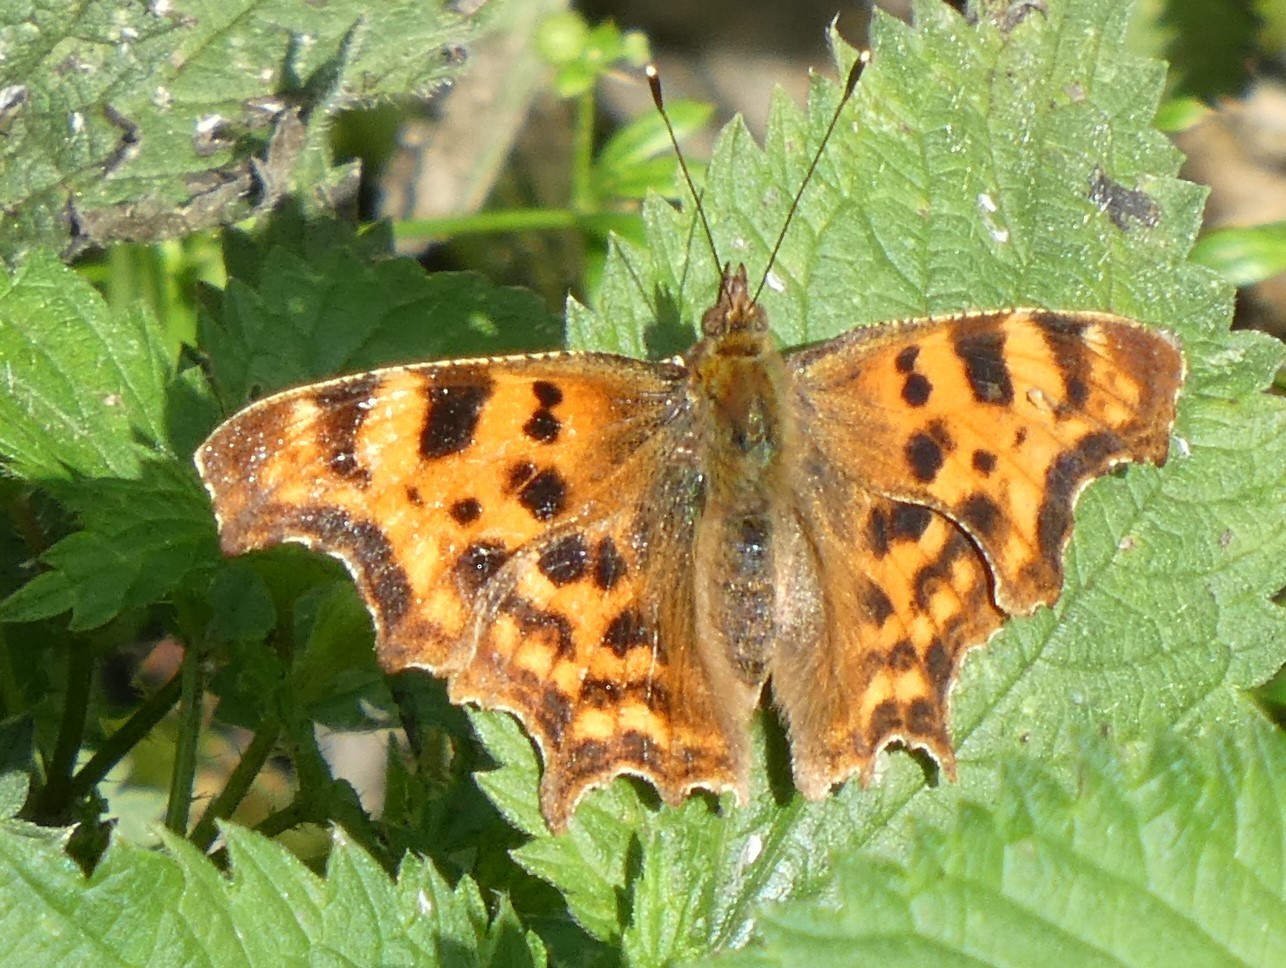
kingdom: Animalia
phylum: Arthropoda
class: Insecta
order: Lepidoptera
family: Nymphalidae
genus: Polygonia
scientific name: Polygonia c-album
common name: Comma
